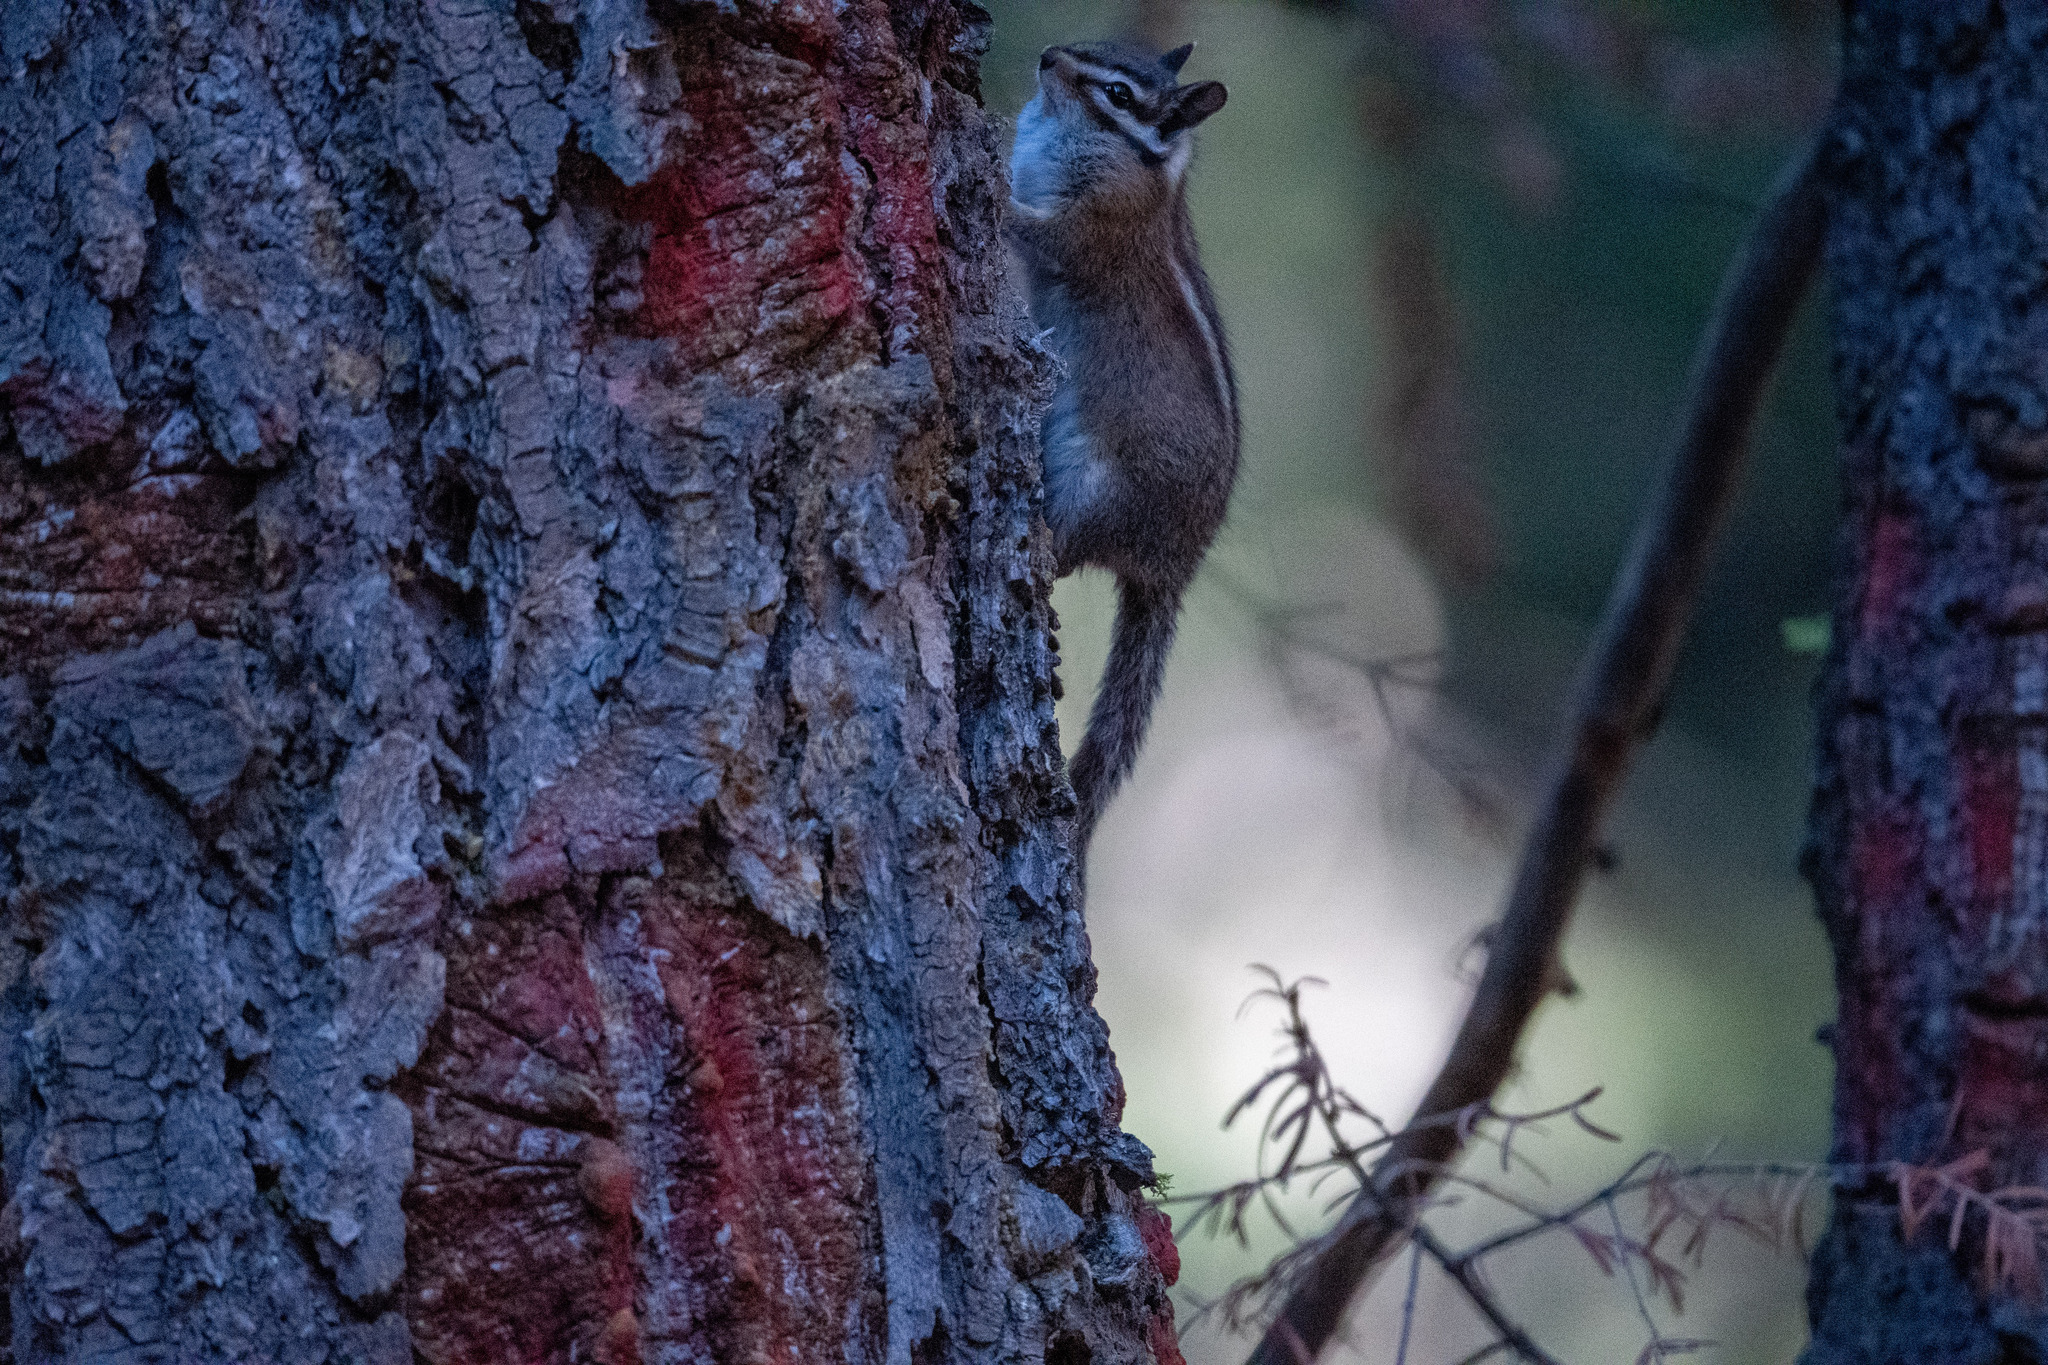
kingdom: Animalia
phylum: Chordata
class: Mammalia
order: Rodentia
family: Sciuridae
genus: Tamias
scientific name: Tamias speciosus
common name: Lodgepole chipmunk
